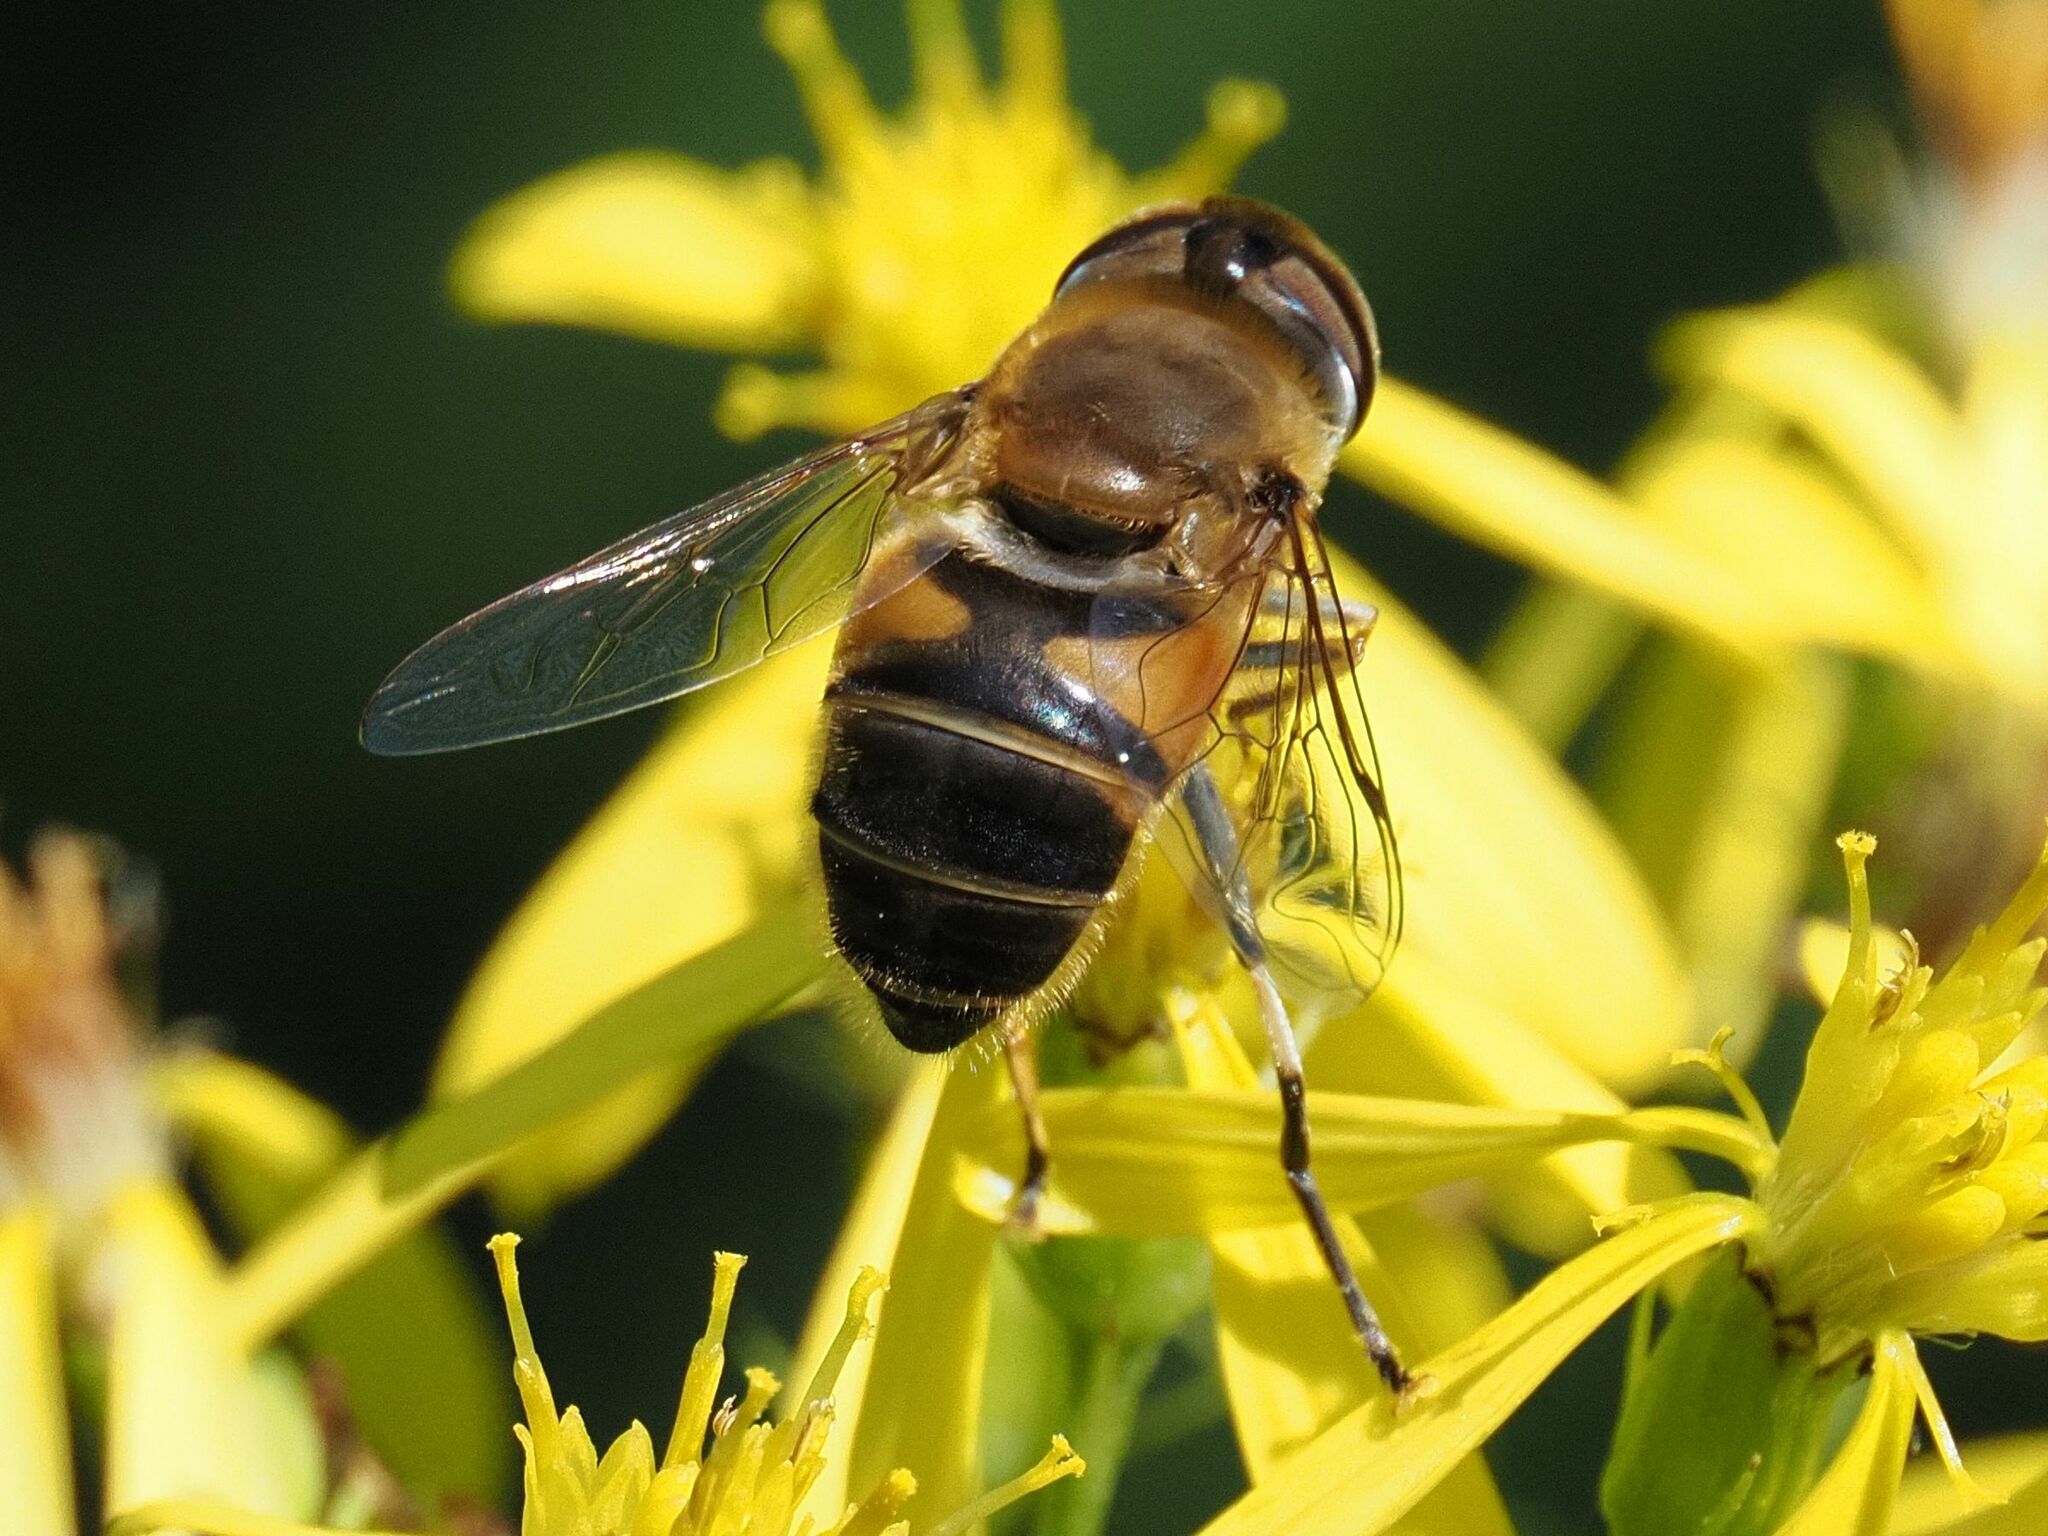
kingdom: Animalia
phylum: Arthropoda
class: Insecta
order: Diptera
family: Syrphidae
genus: Eristalis
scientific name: Eristalis pertinax
